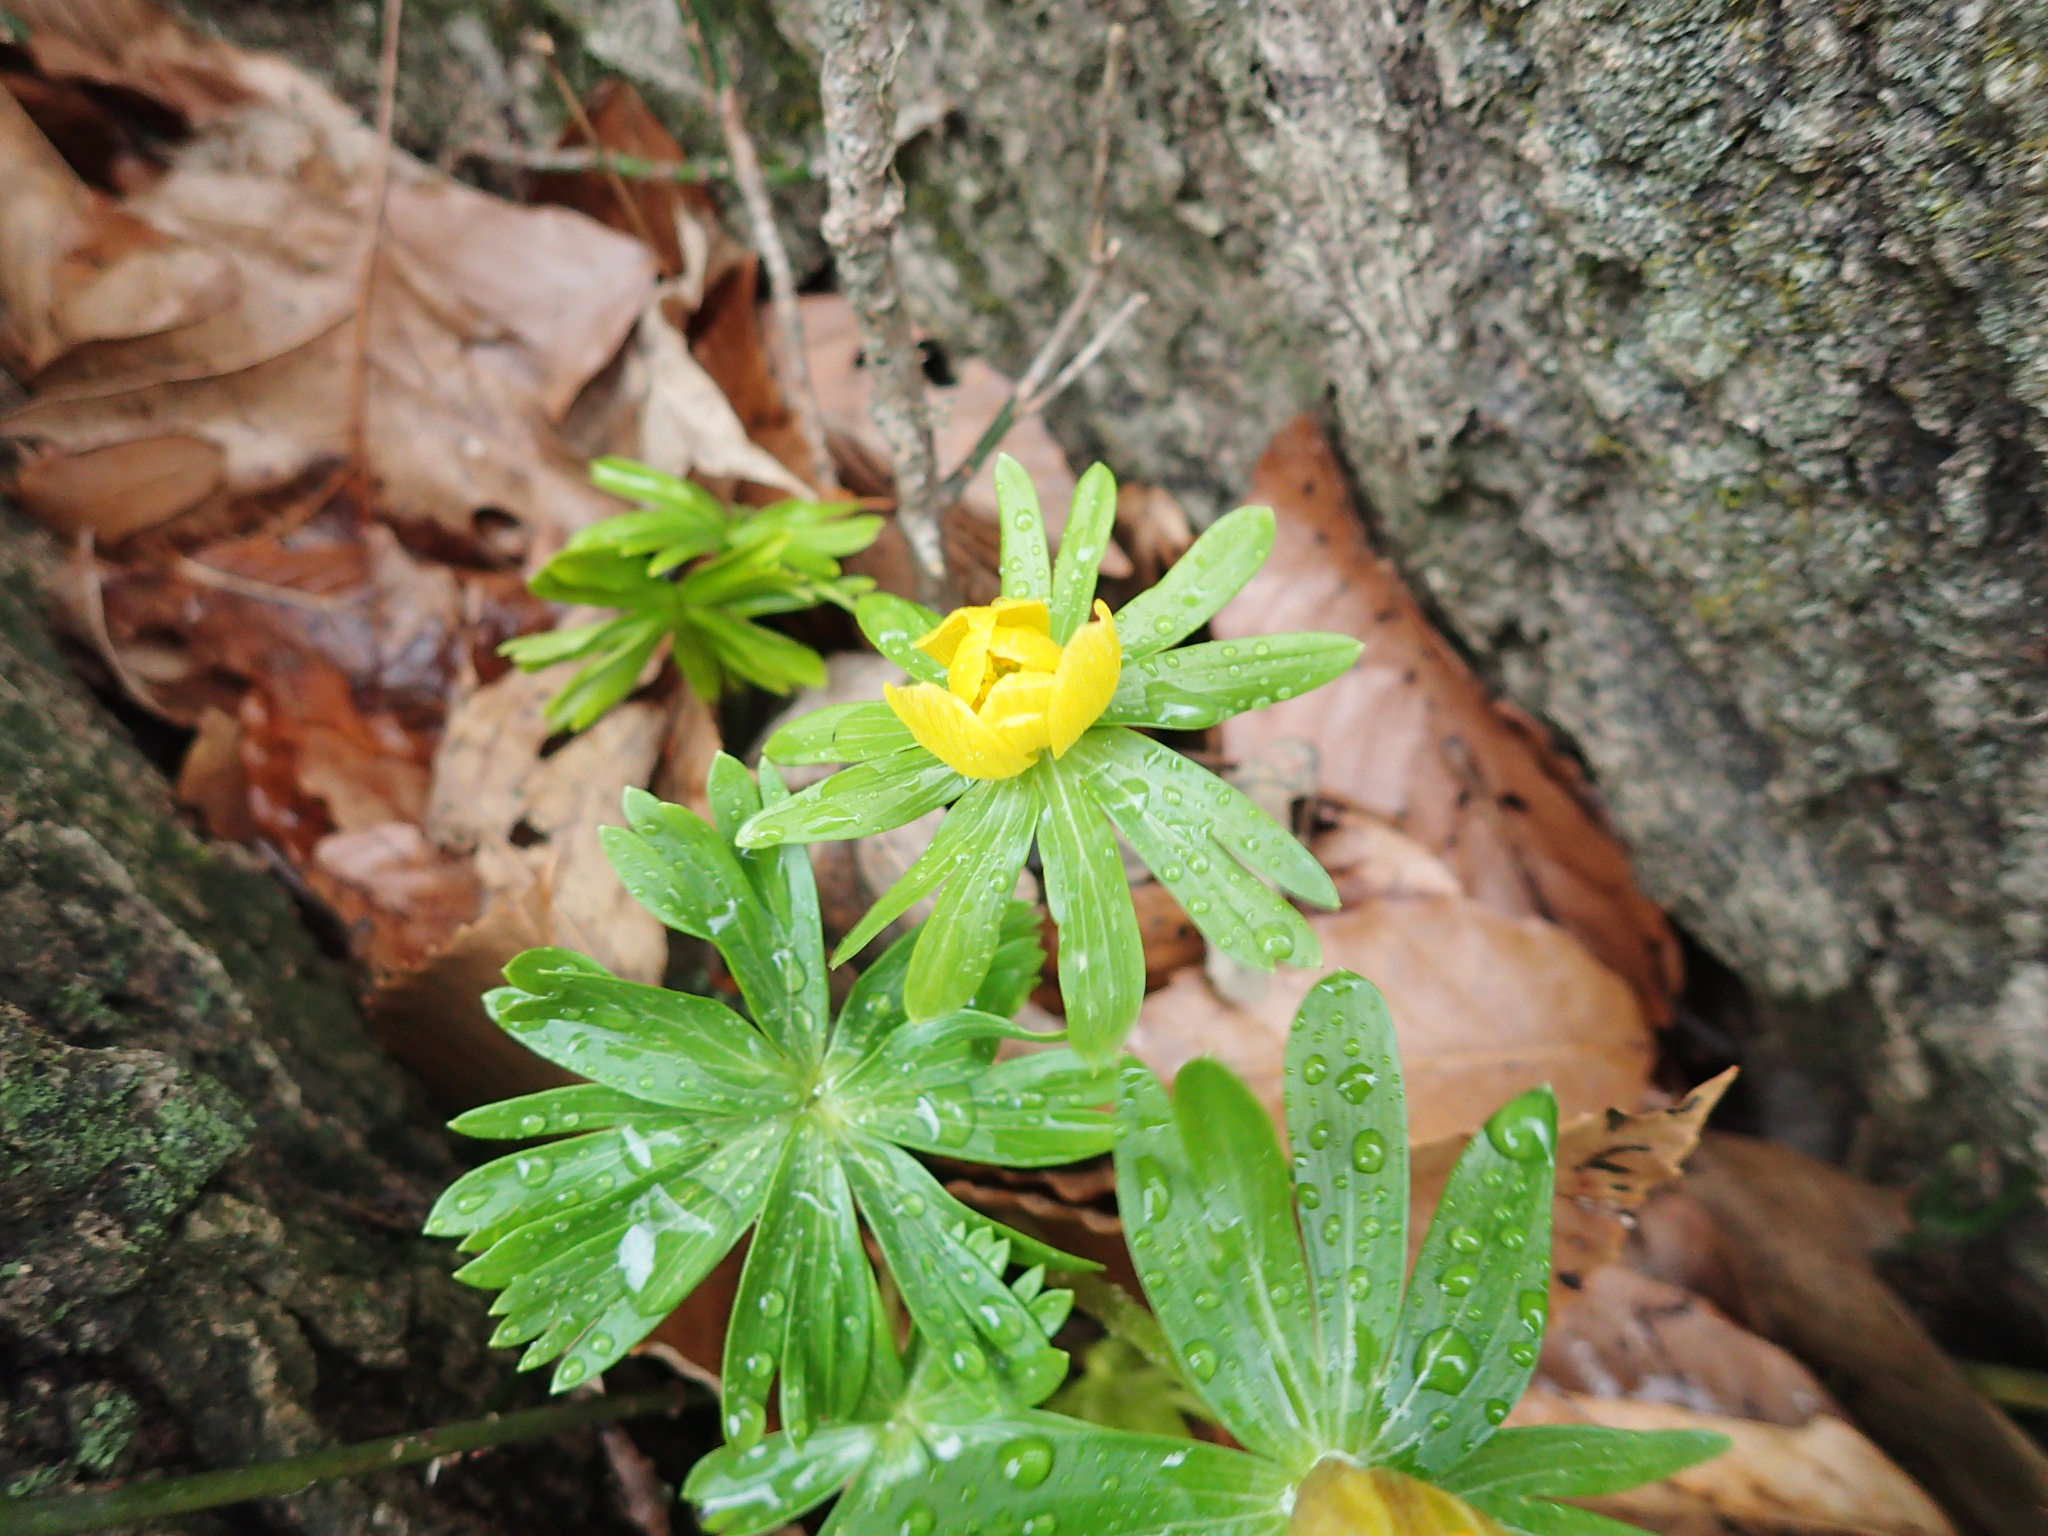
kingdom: Plantae
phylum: Tracheophyta
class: Magnoliopsida
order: Ranunculales
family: Ranunculaceae
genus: Eranthis
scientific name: Eranthis hyemalis
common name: Winter aconite
